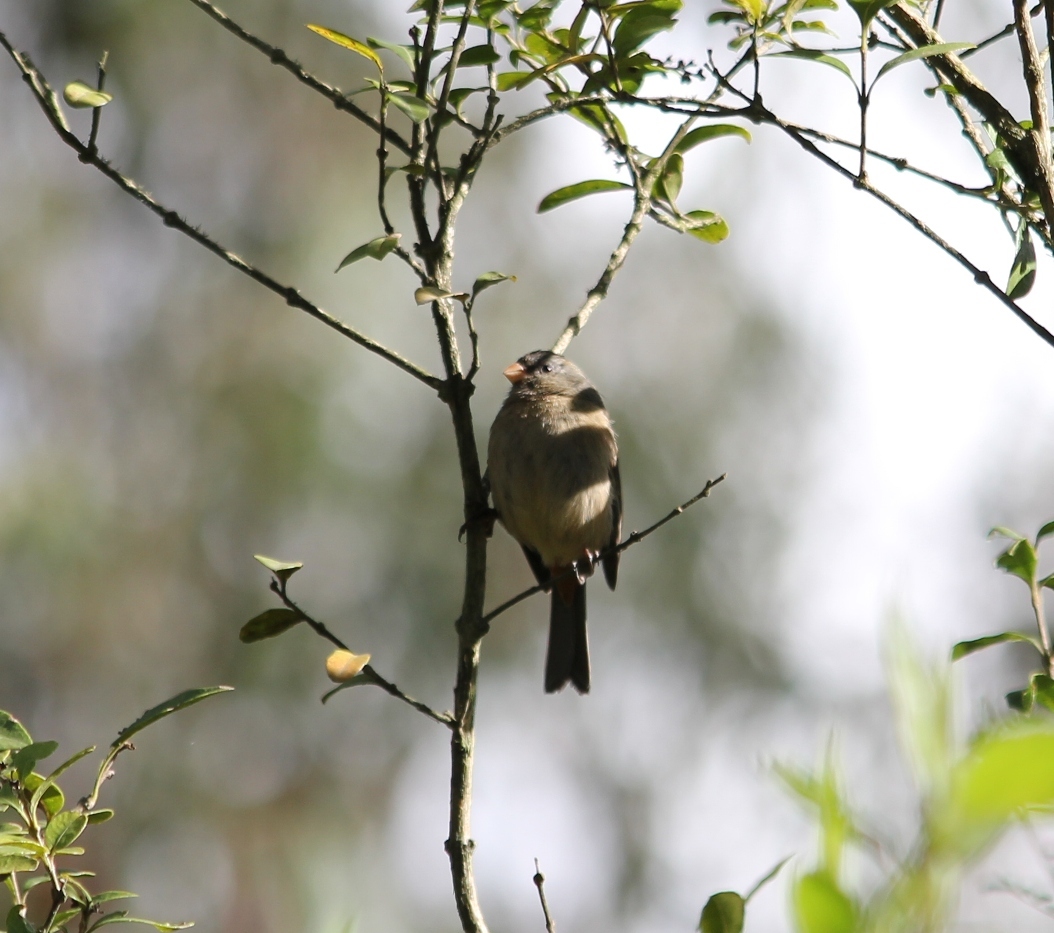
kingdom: Animalia
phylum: Chordata
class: Aves
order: Passeriformes
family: Thraupidae
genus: Catamenia
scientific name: Catamenia inornata
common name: Plain-colored seedeater
